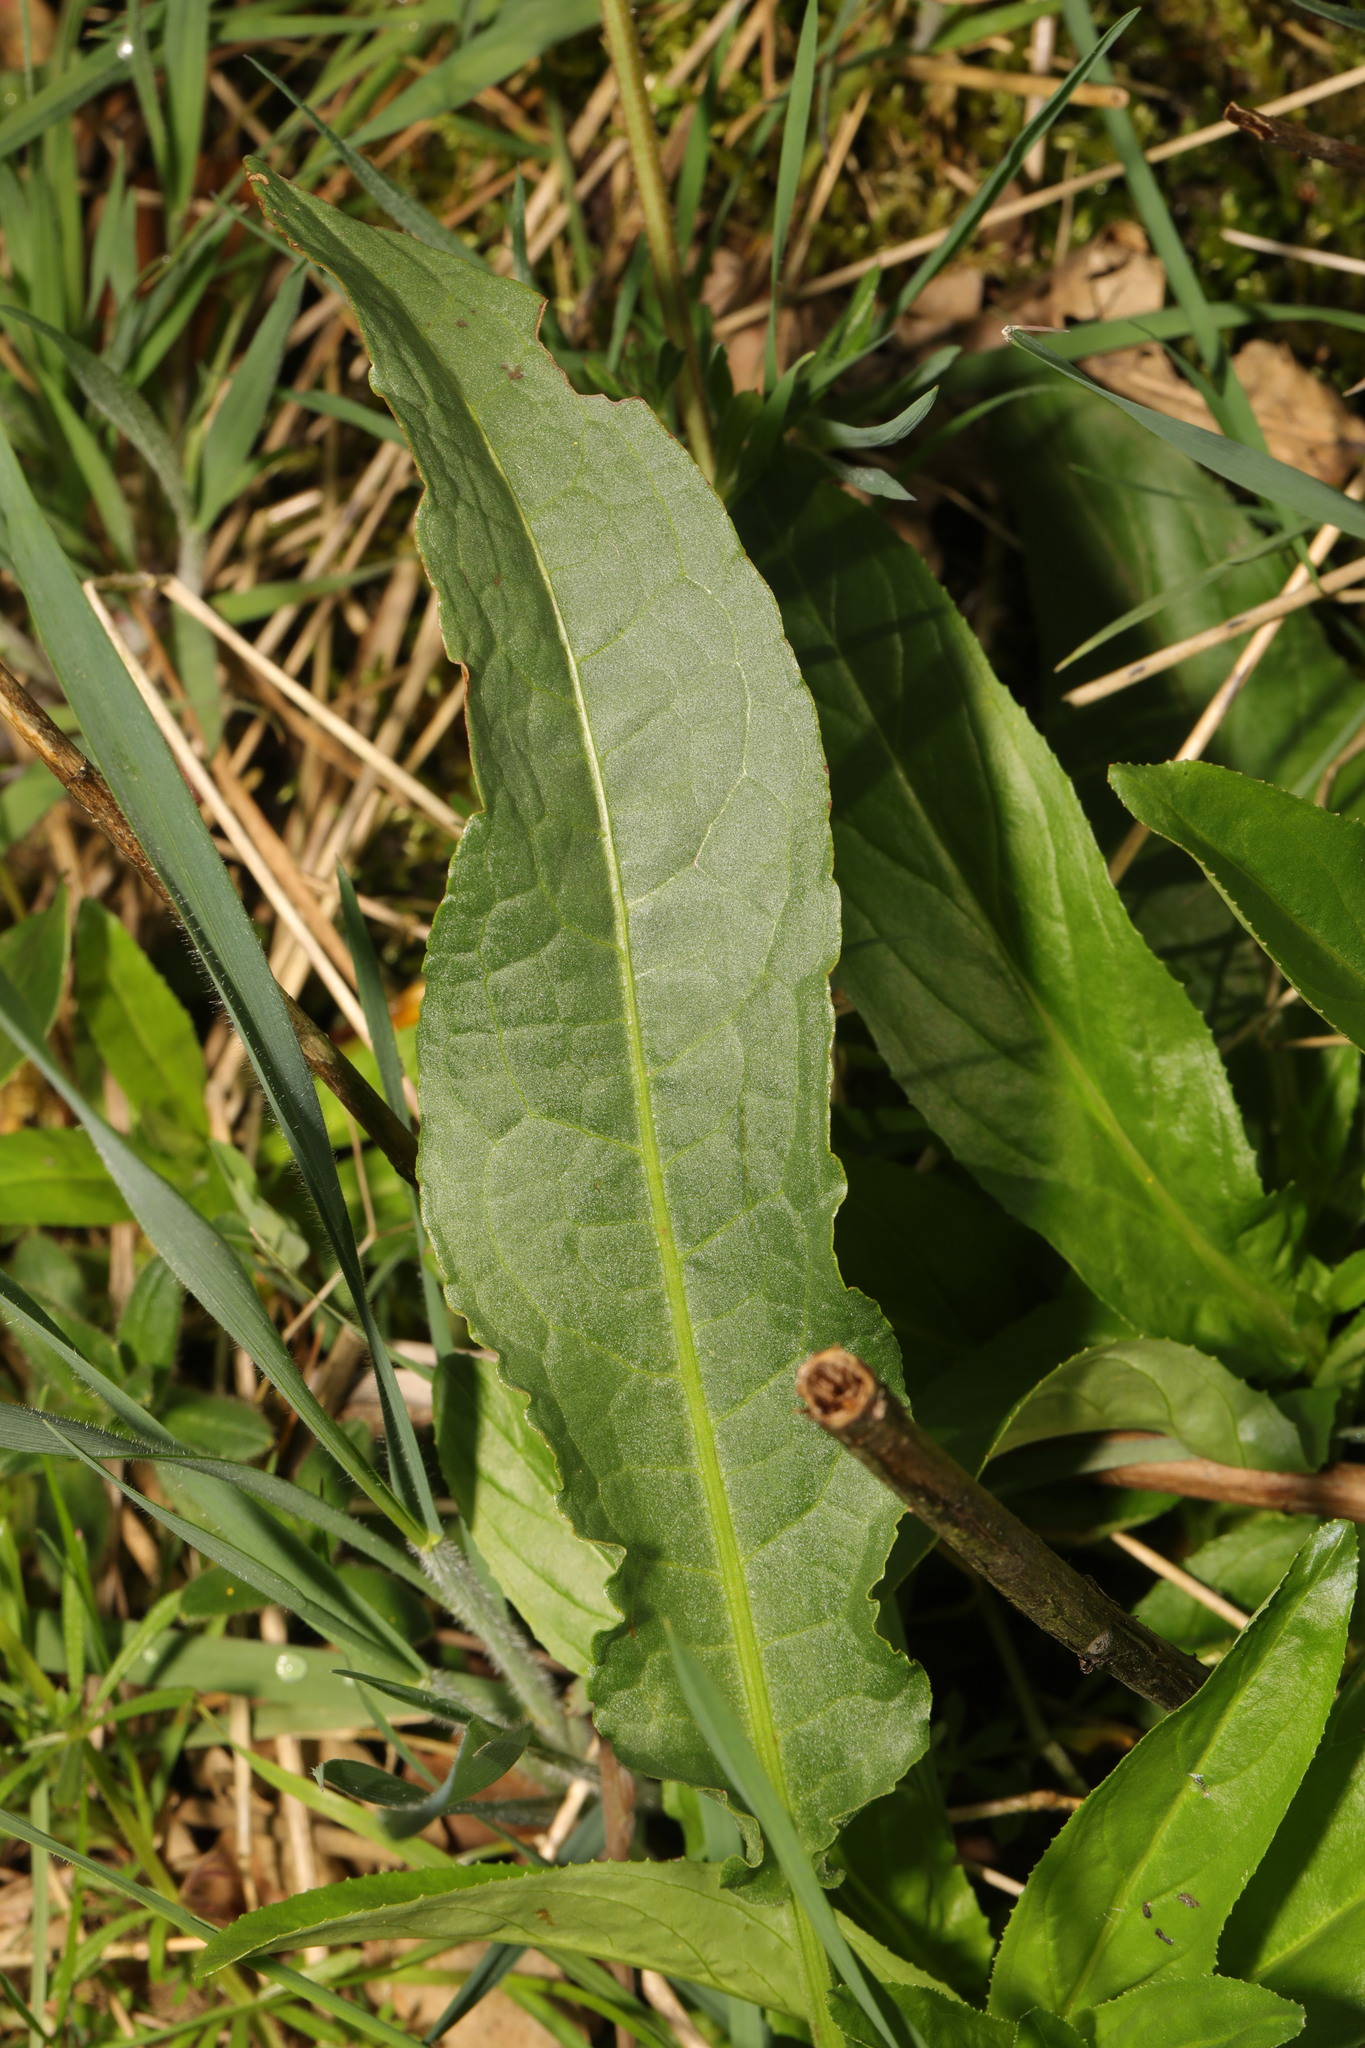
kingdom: Plantae
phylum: Tracheophyta
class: Magnoliopsida
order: Caryophyllales
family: Polygonaceae
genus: Rumex
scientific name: Rumex crispus
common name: Curled dock
